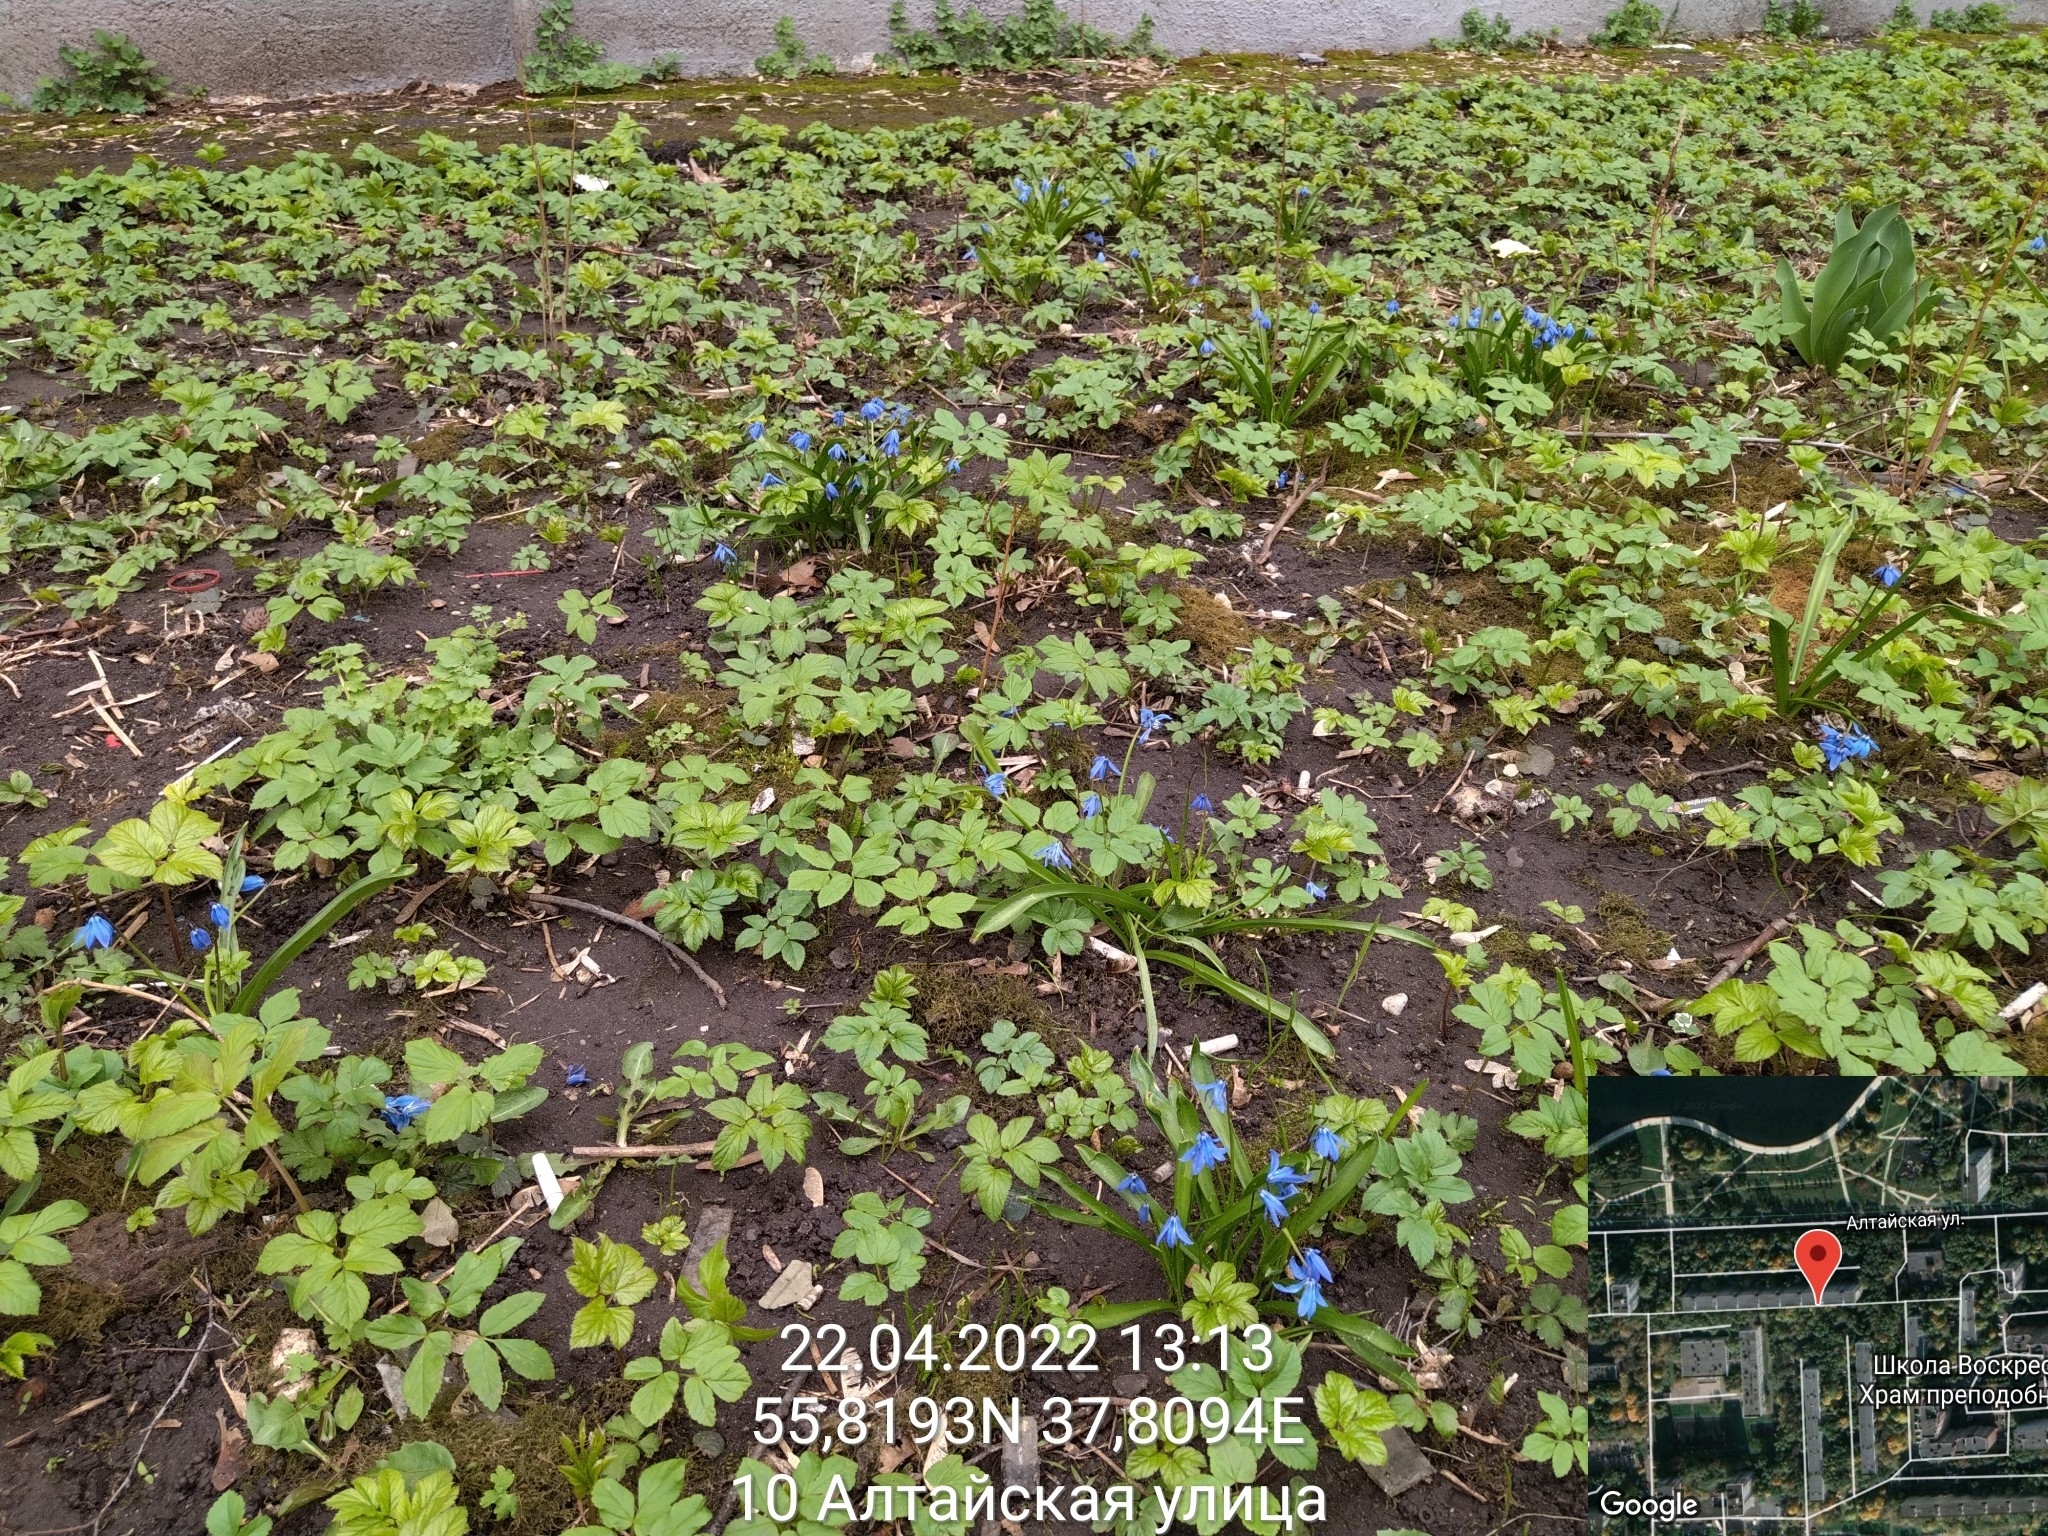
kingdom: Plantae
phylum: Tracheophyta
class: Liliopsida
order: Asparagales
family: Asparagaceae
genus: Scilla
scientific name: Scilla siberica
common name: Siberian squill
